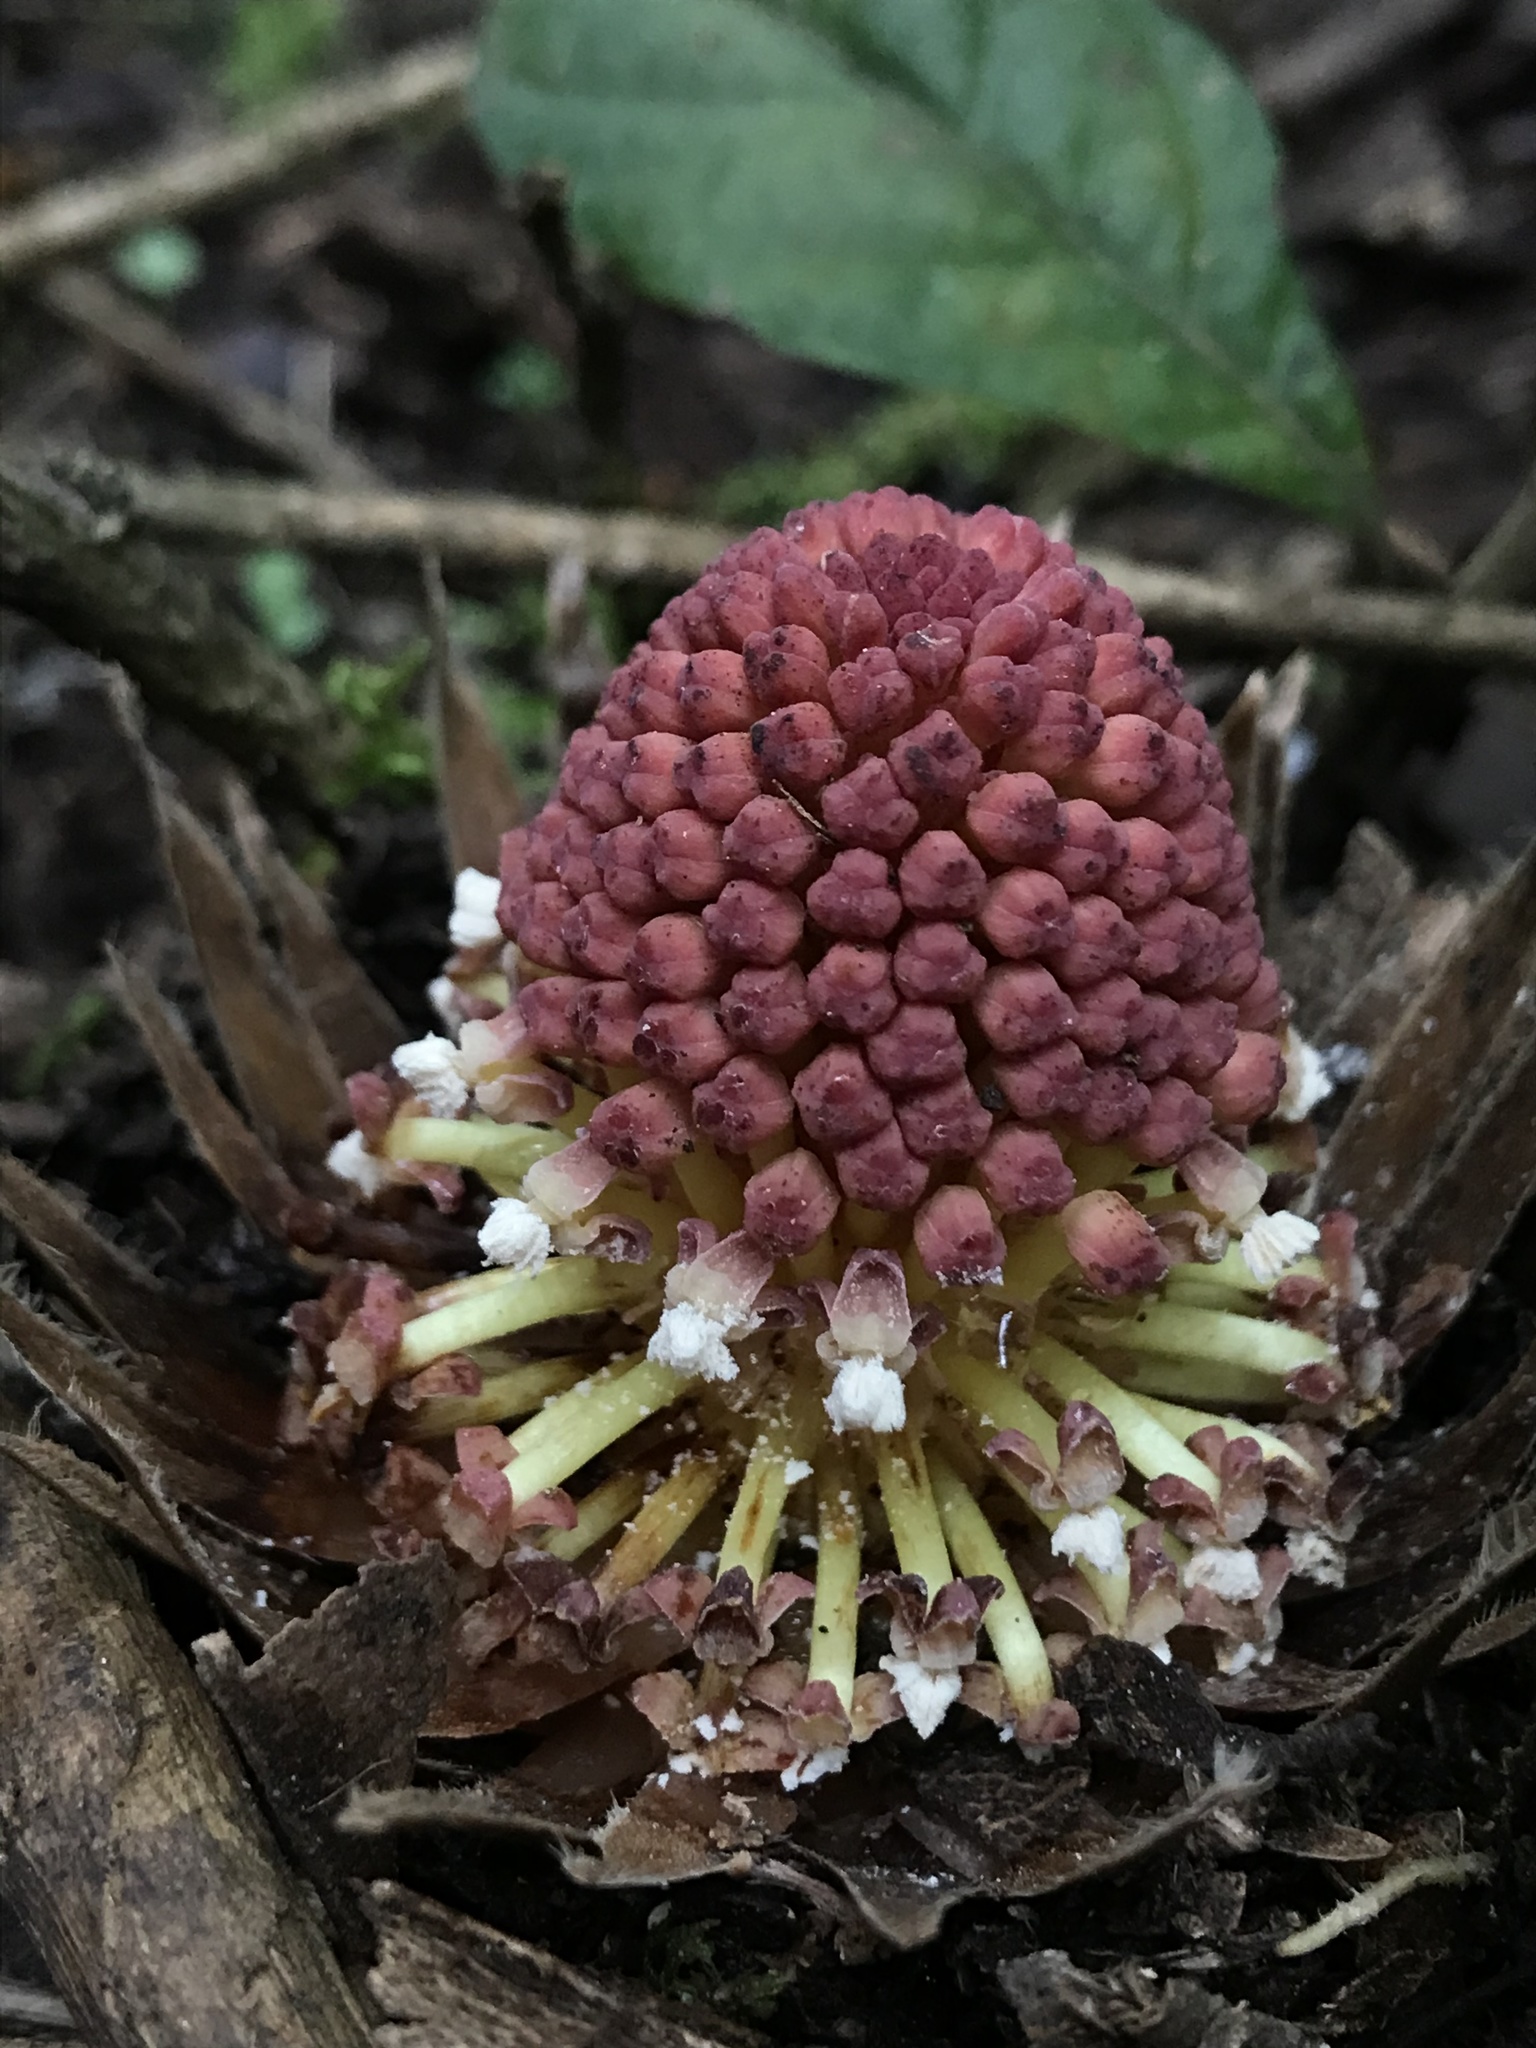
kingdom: Plantae
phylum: Tracheophyta
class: Magnoliopsida
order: Santalales
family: Balanophoraceae
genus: Langsdorffia
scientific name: Langsdorffia hypogaea
